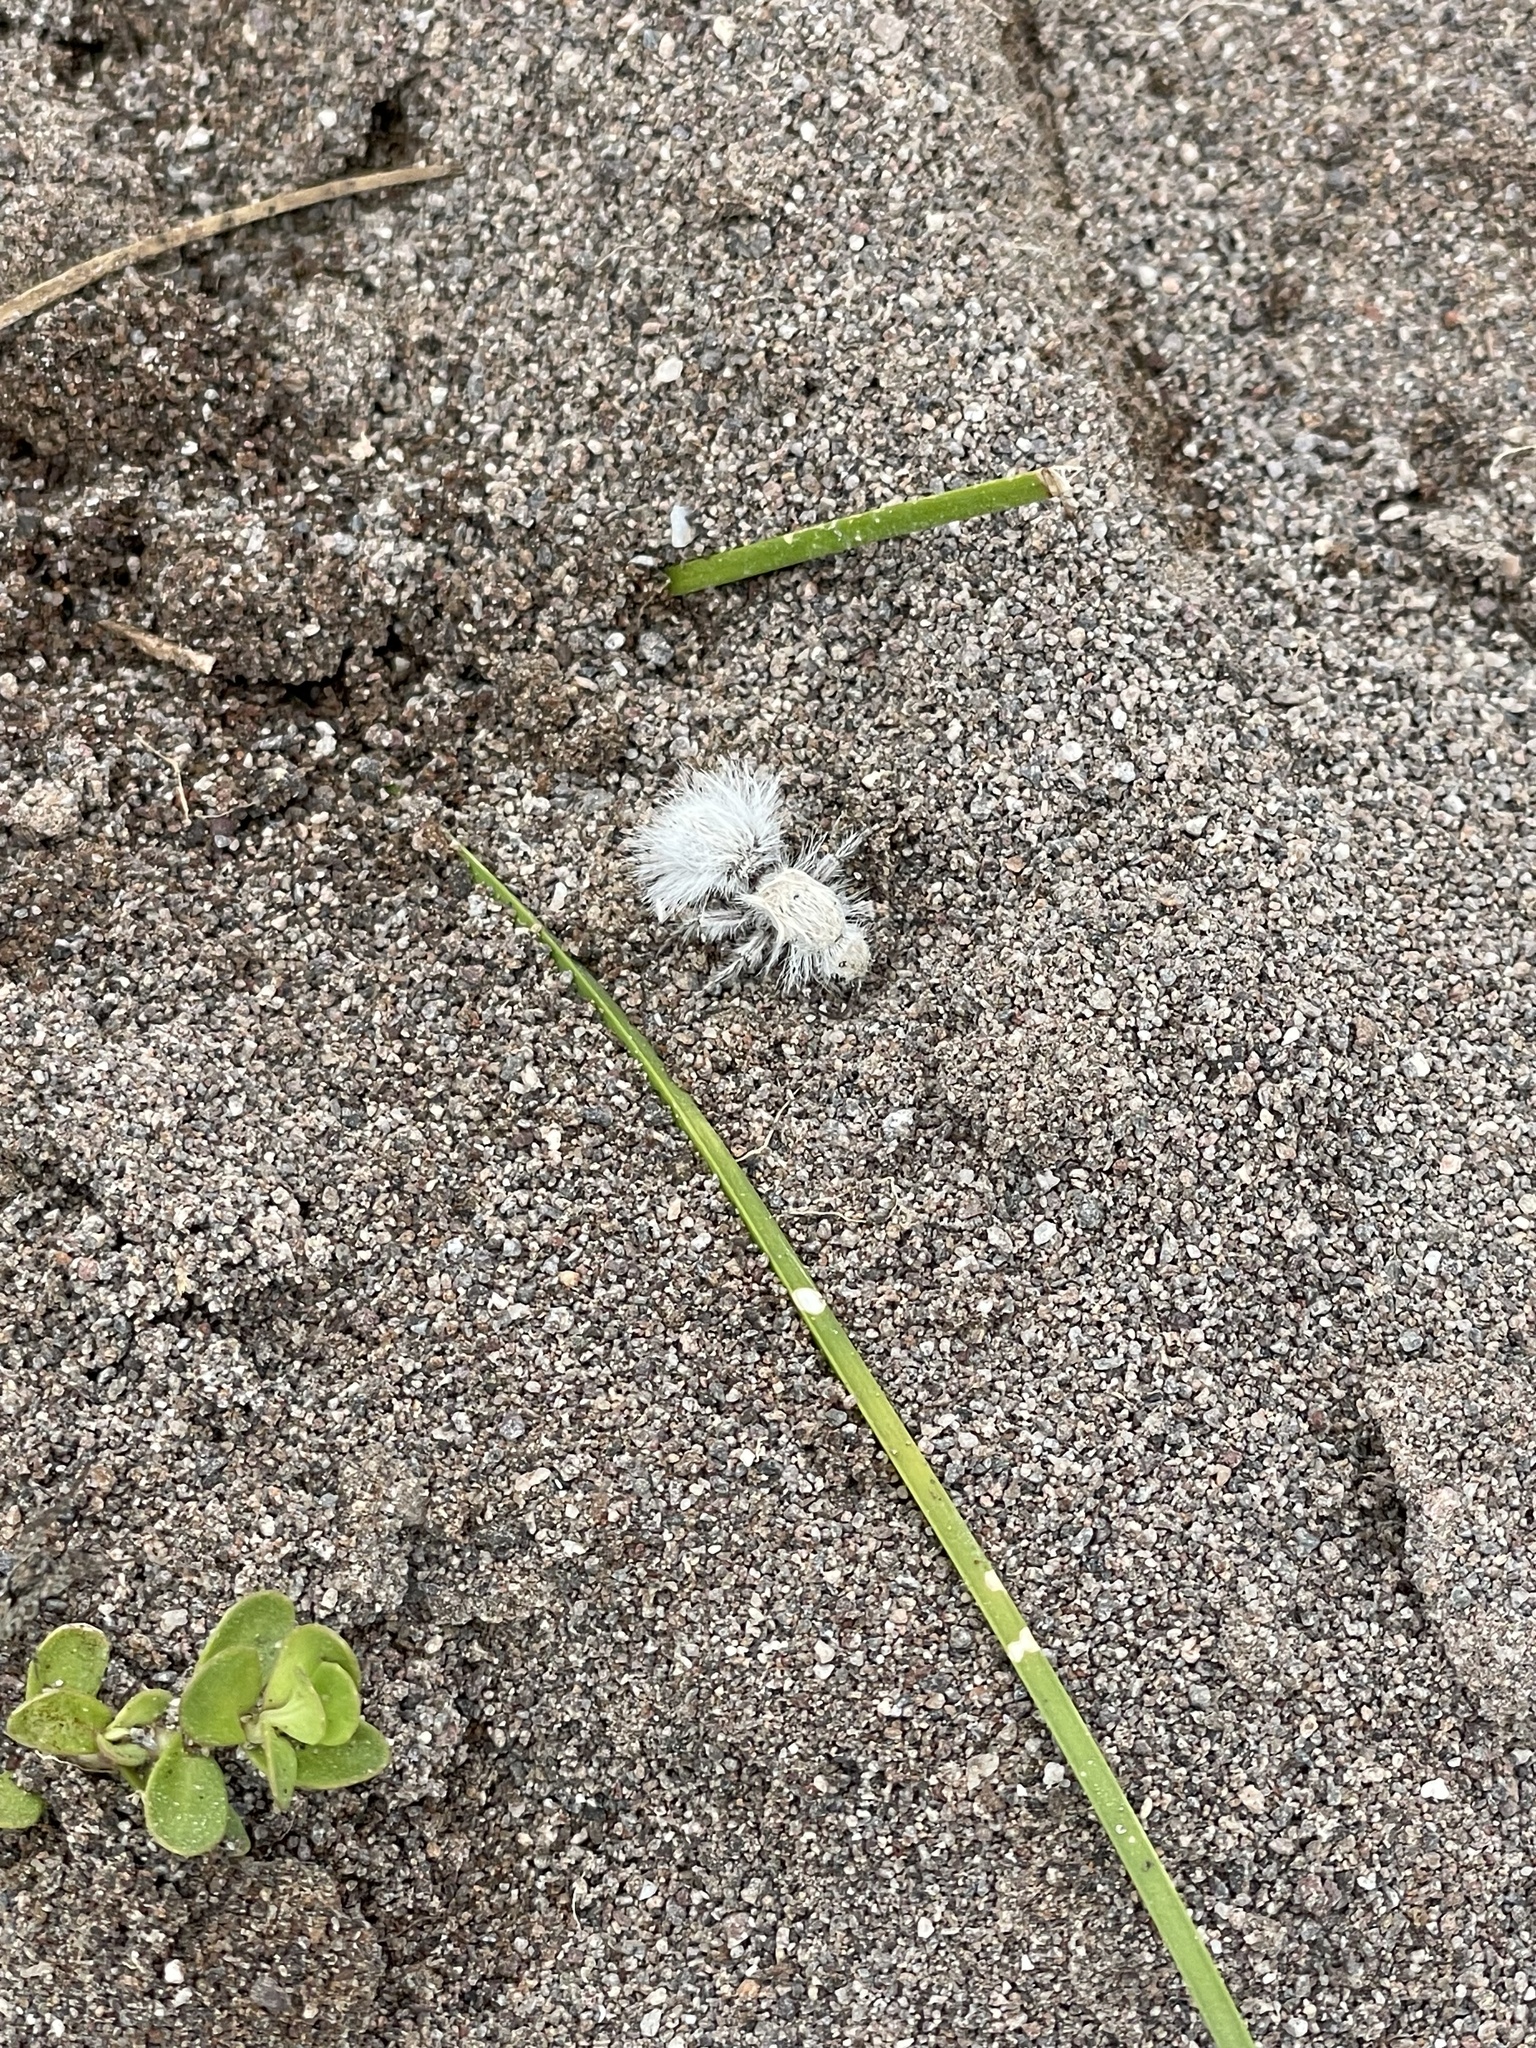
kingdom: Animalia
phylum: Arthropoda
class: Insecta
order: Hymenoptera
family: Mutillidae
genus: Dasymutilla
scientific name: Dasymutilla gloriosa
